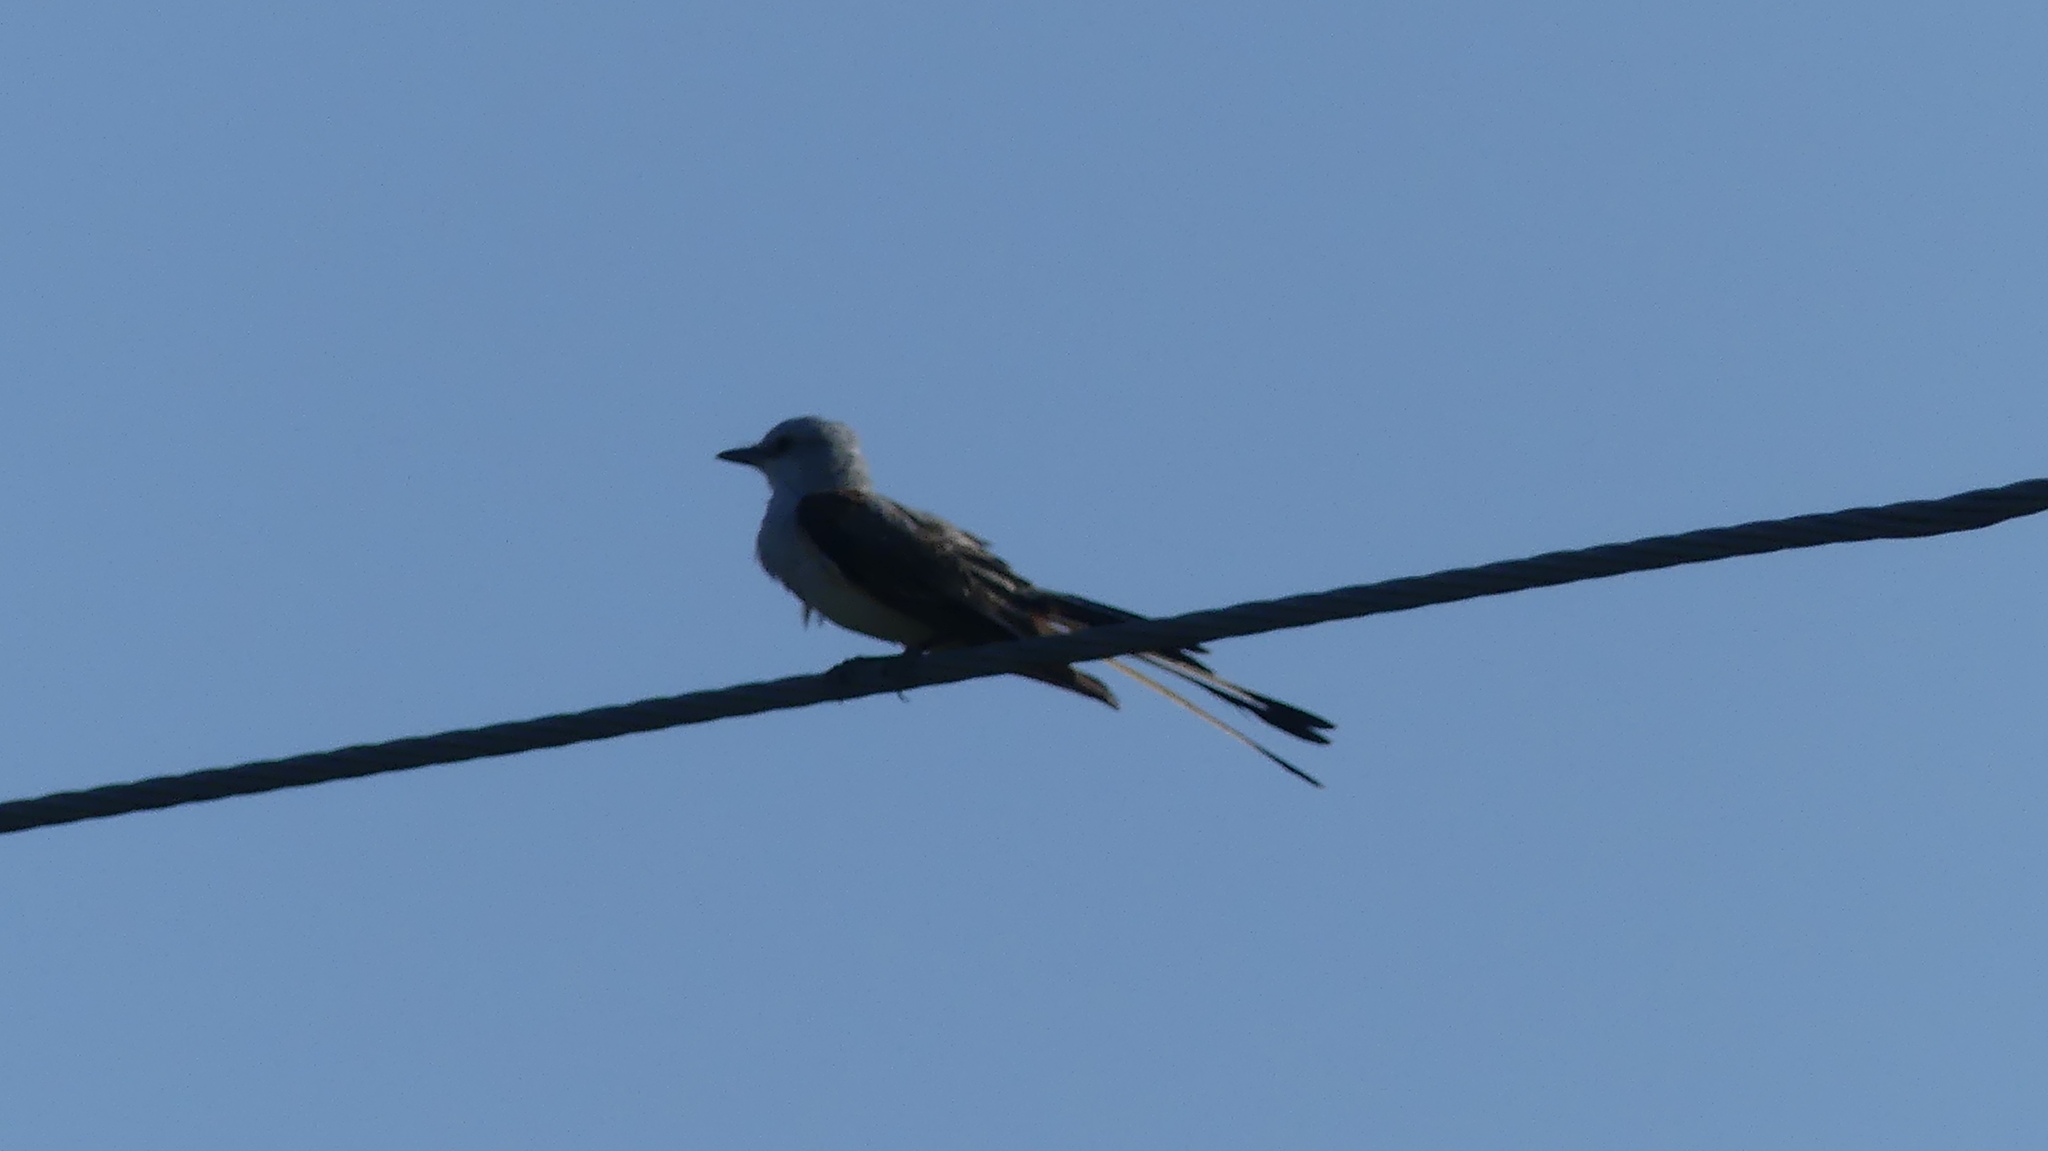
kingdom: Animalia
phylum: Chordata
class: Aves
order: Passeriformes
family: Tyrannidae
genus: Tyrannus
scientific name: Tyrannus forficatus
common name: Scissor-tailed flycatcher
